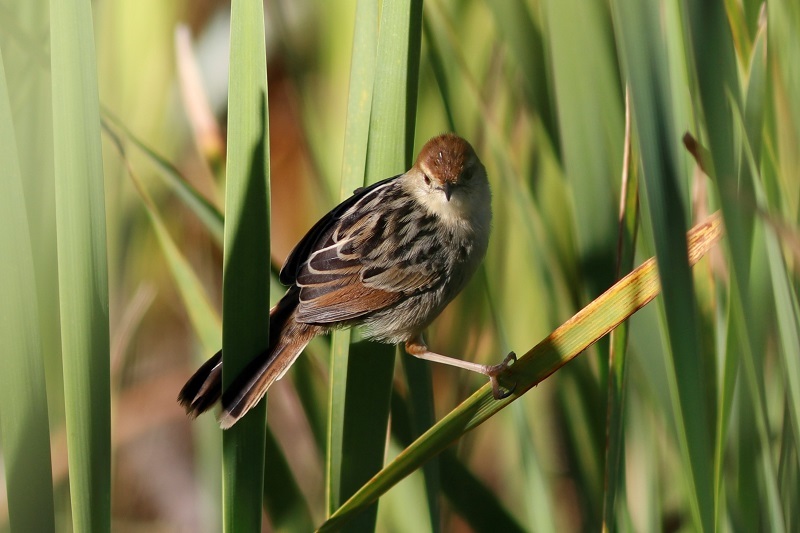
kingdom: Animalia
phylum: Chordata
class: Aves
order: Passeriformes
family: Cisticolidae
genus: Cisticola
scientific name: Cisticola tinniens
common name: Levaillant's cisticola
